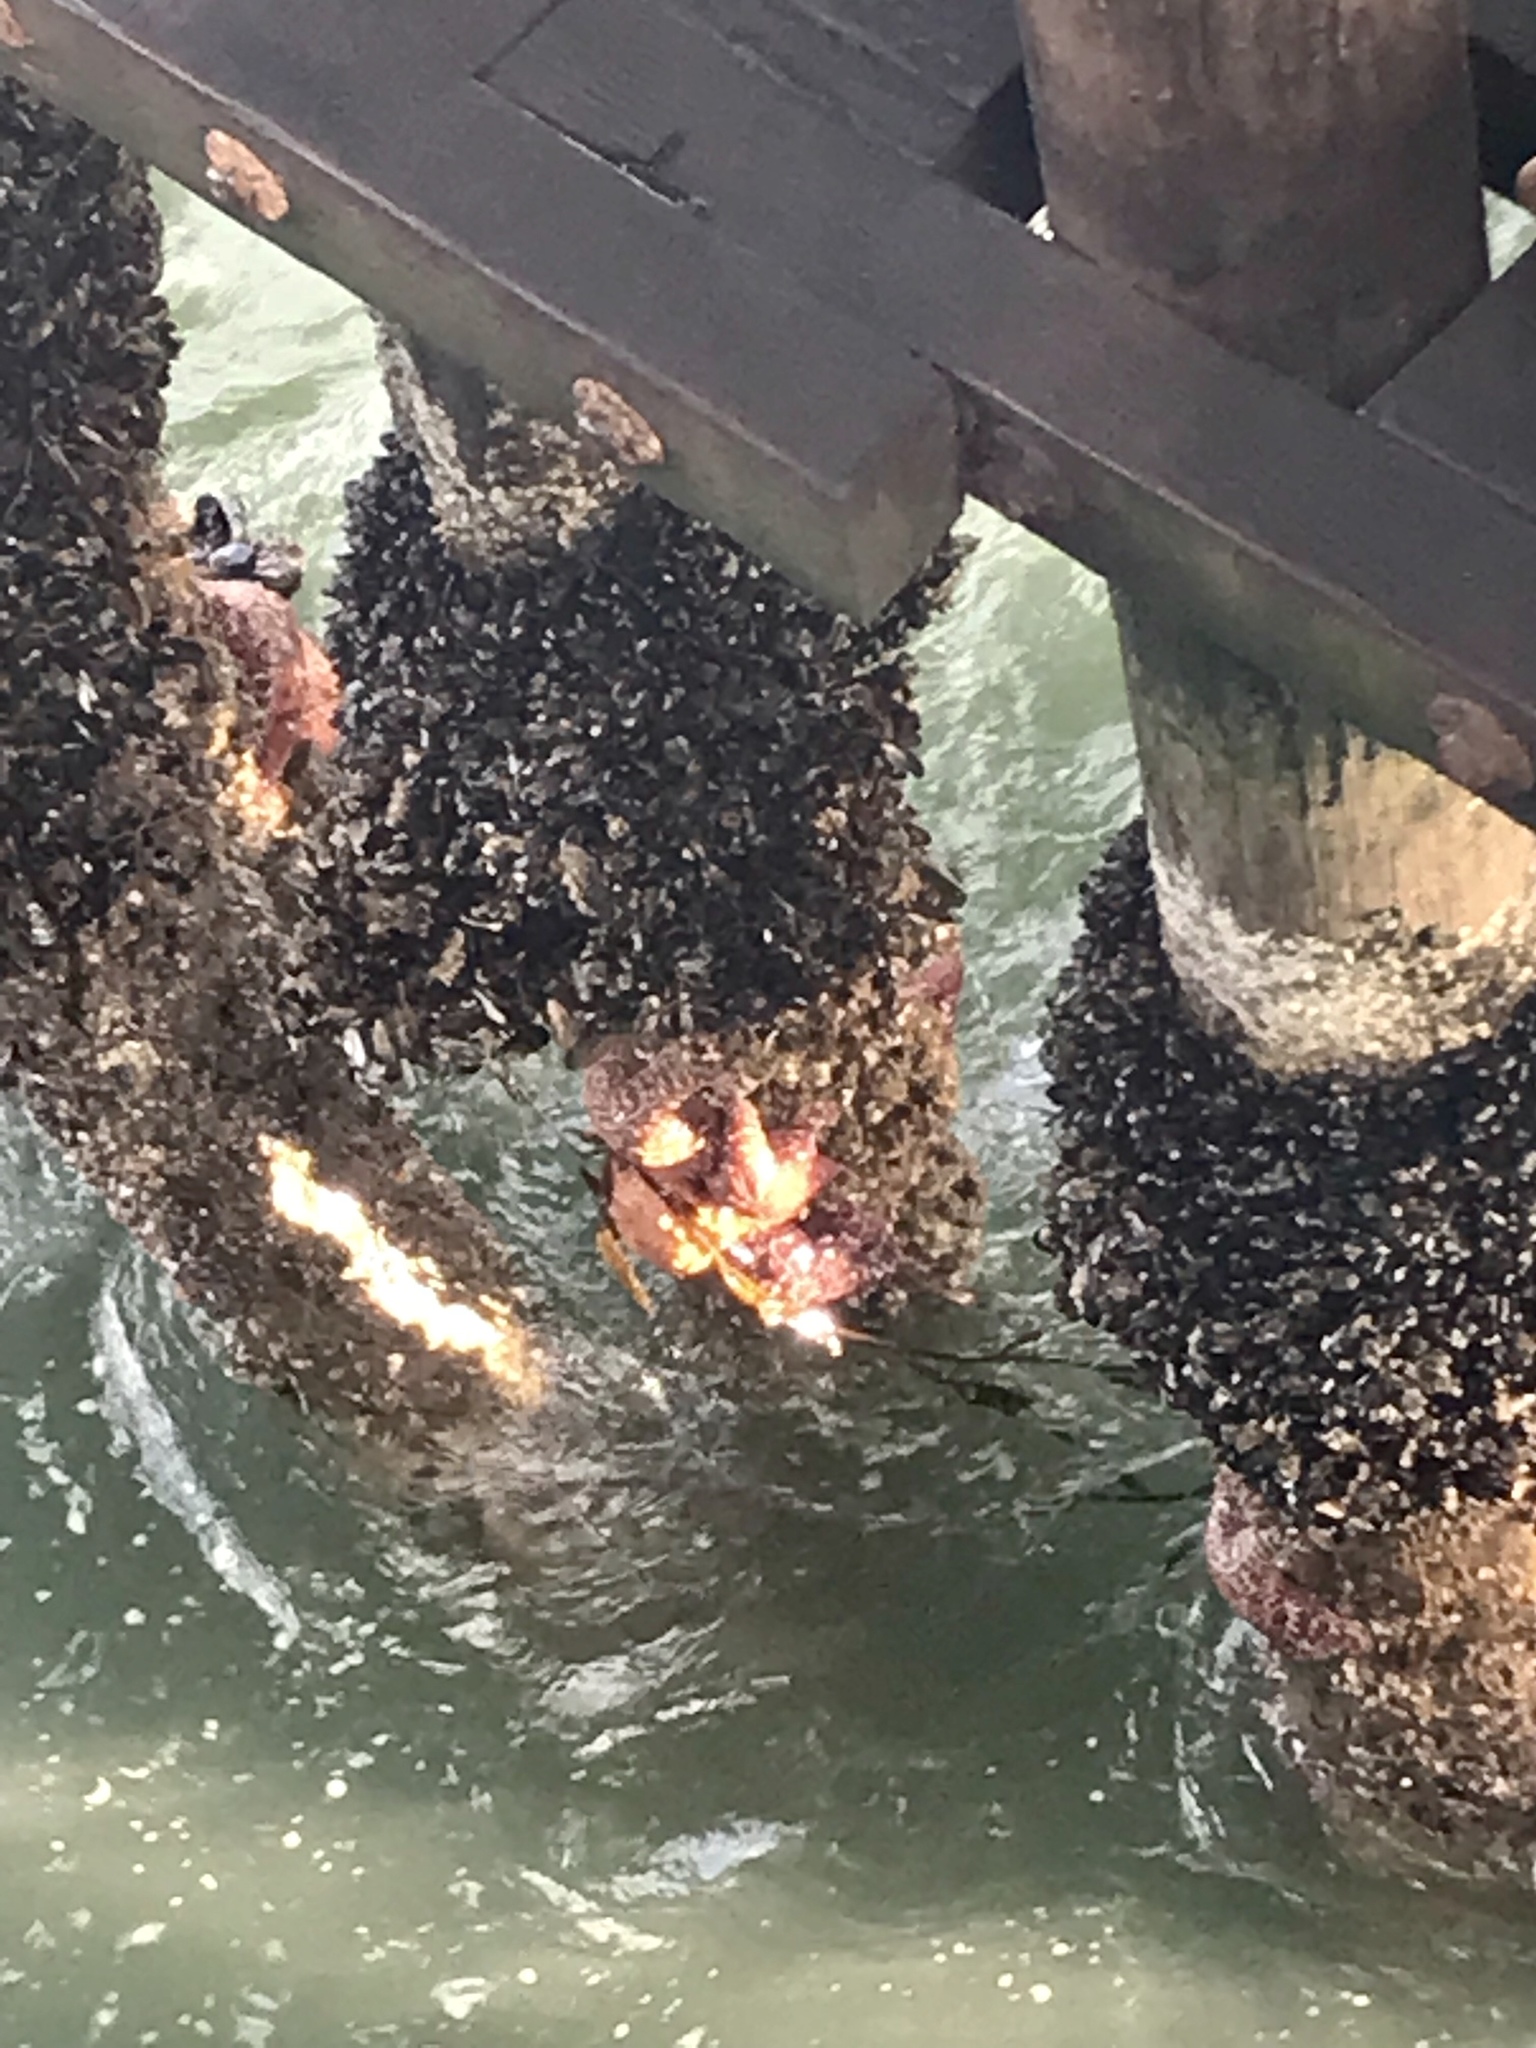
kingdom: Animalia
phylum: Echinodermata
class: Asteroidea
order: Forcipulatida
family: Asteriidae
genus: Pisaster
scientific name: Pisaster ochraceus
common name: Ochre stars
